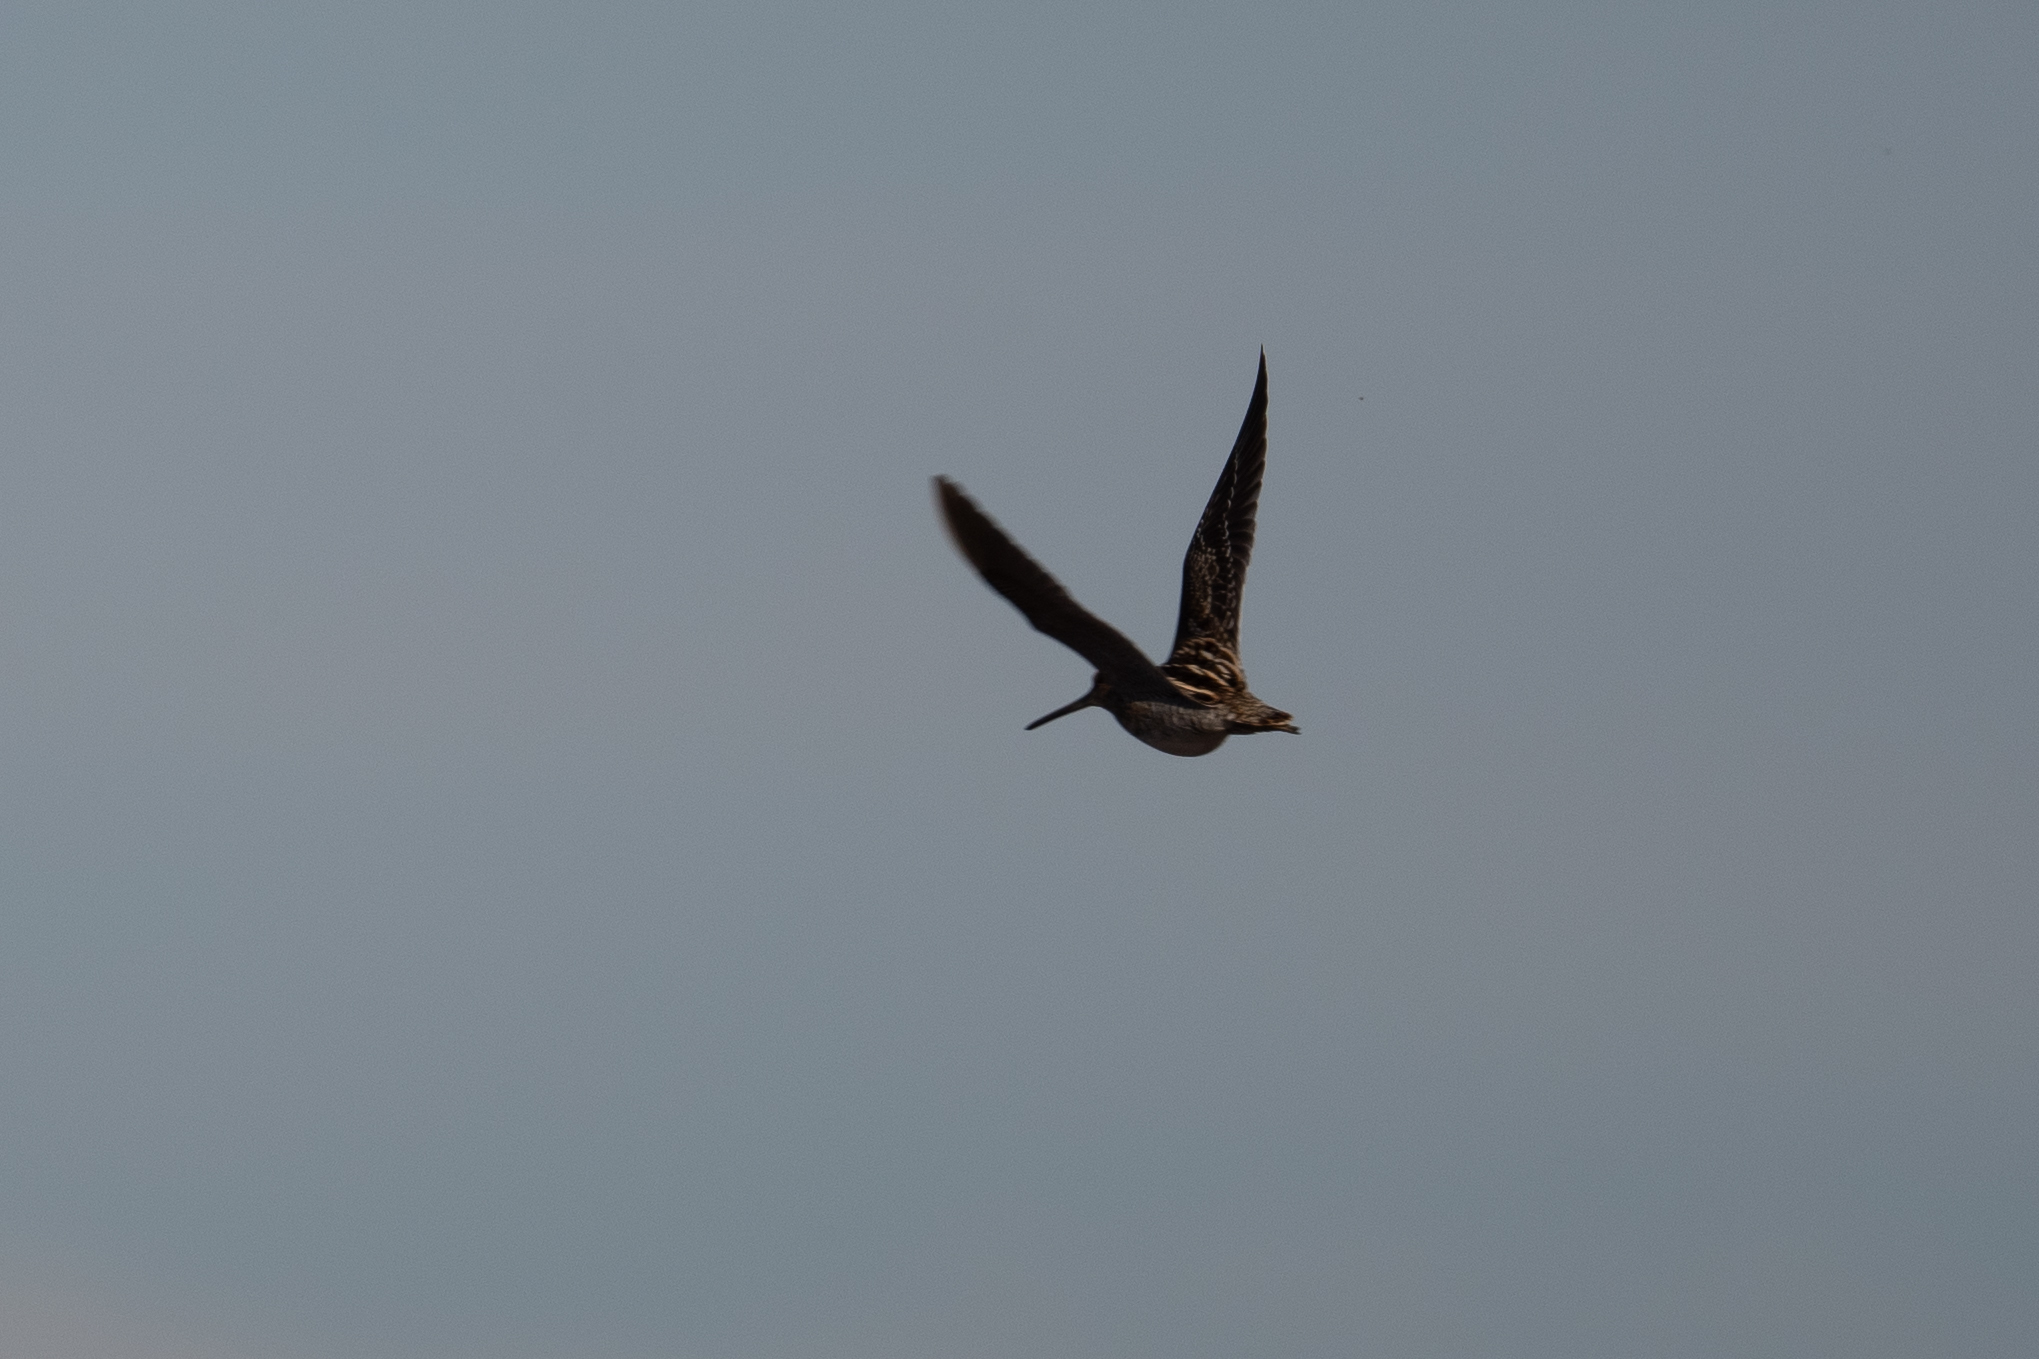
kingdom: Animalia
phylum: Chordata
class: Aves
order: Charadriiformes
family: Scolopacidae
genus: Gallinago
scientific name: Gallinago delicata
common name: Wilson's snipe
